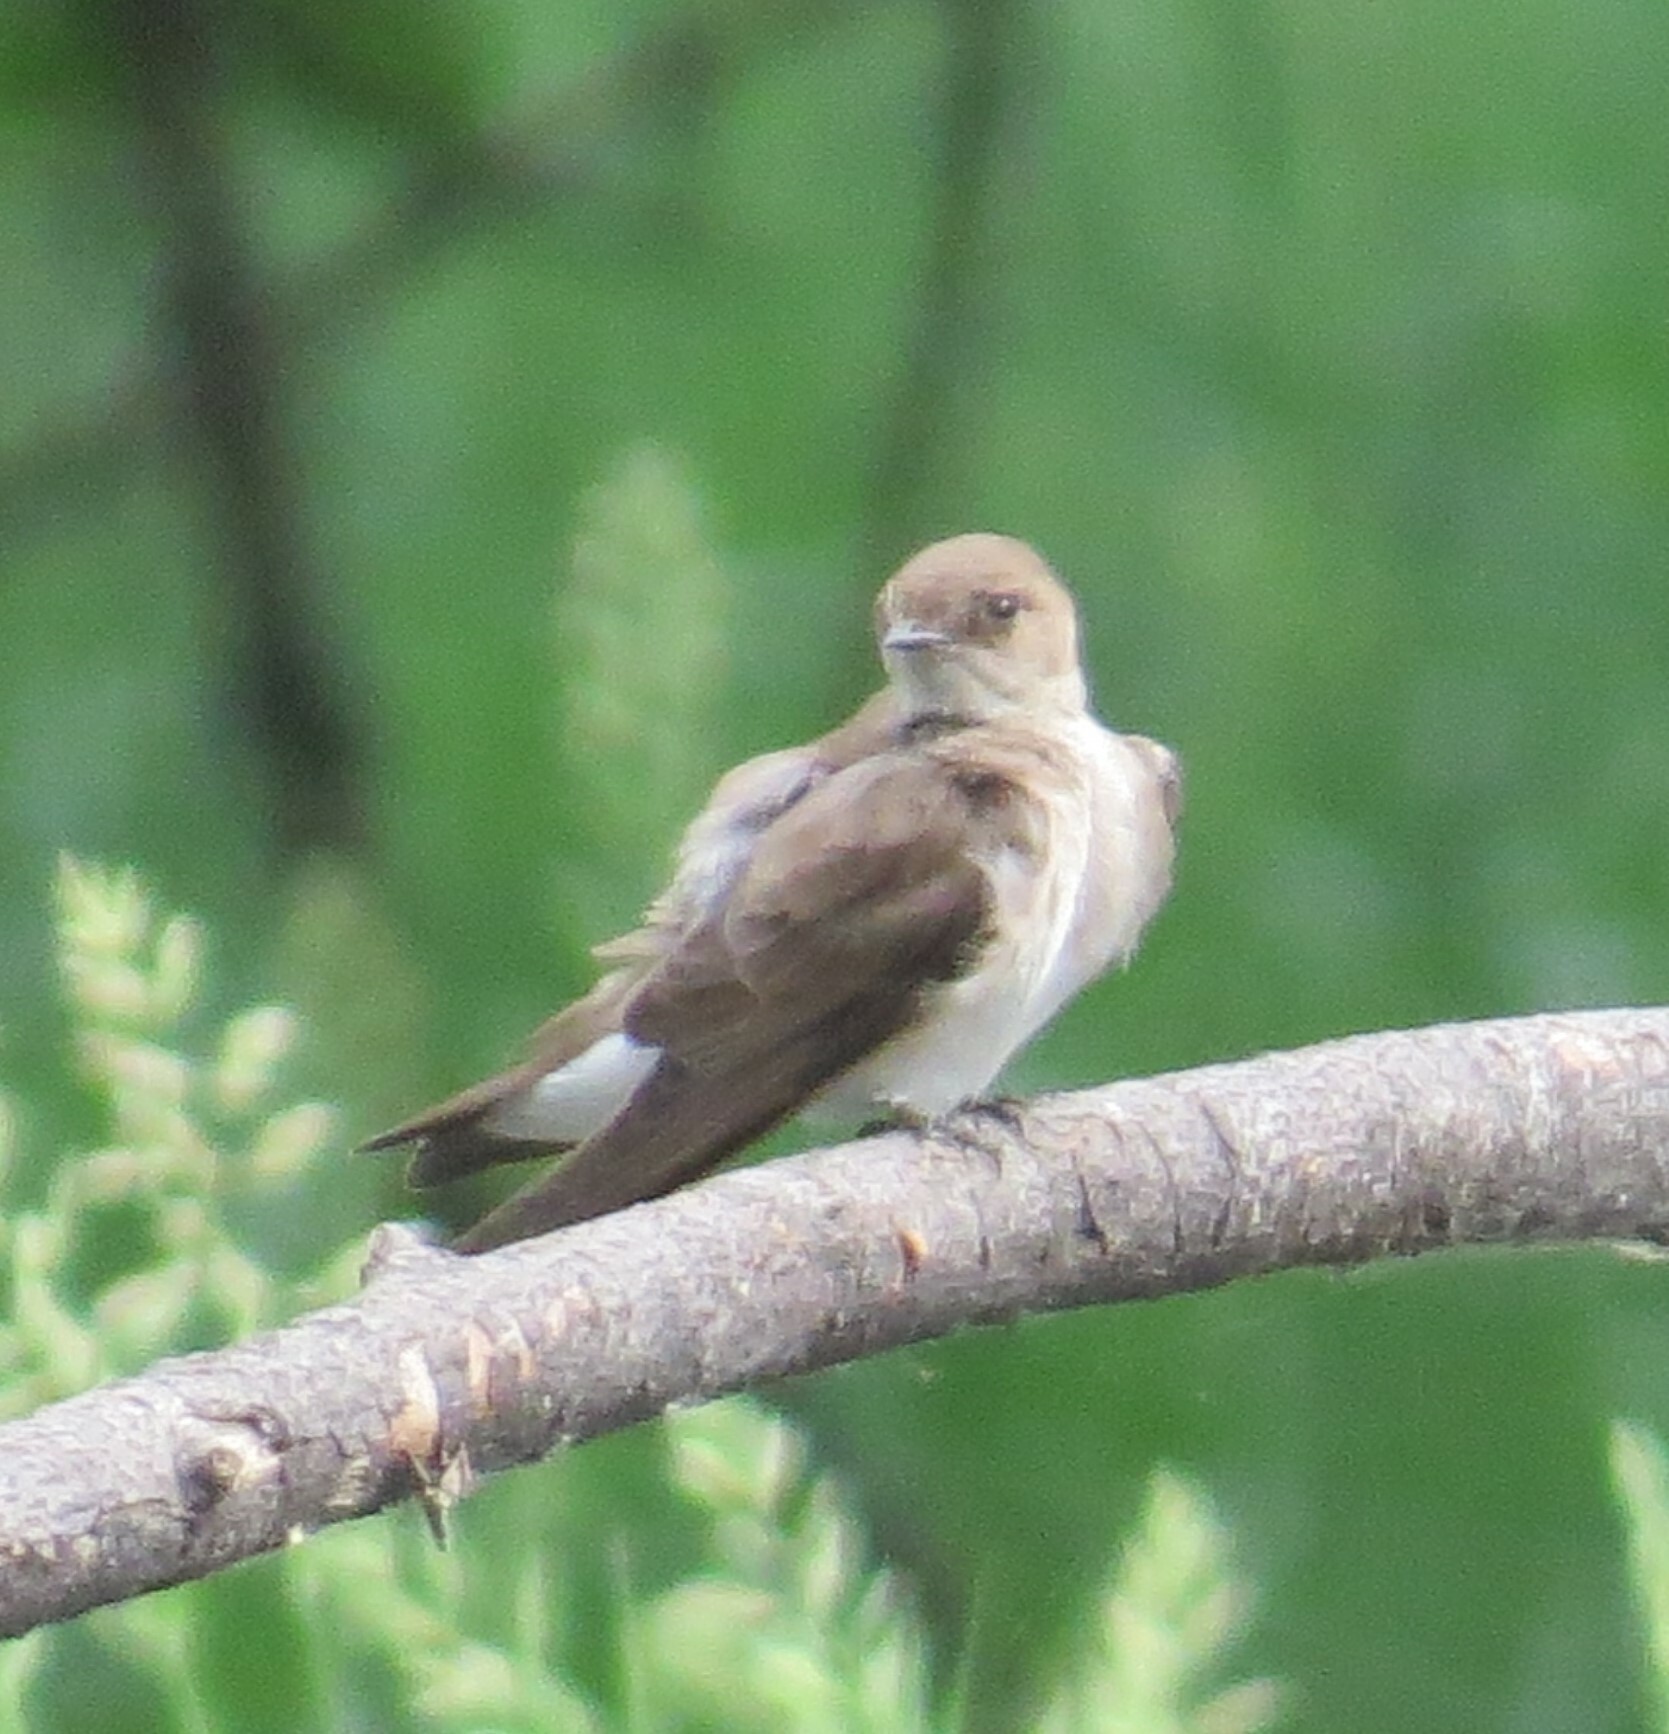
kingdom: Animalia
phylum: Chordata
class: Aves
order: Passeriformes
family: Hirundinidae
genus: Stelgidopteryx
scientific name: Stelgidopteryx serripennis
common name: Northern rough-winged swallow
